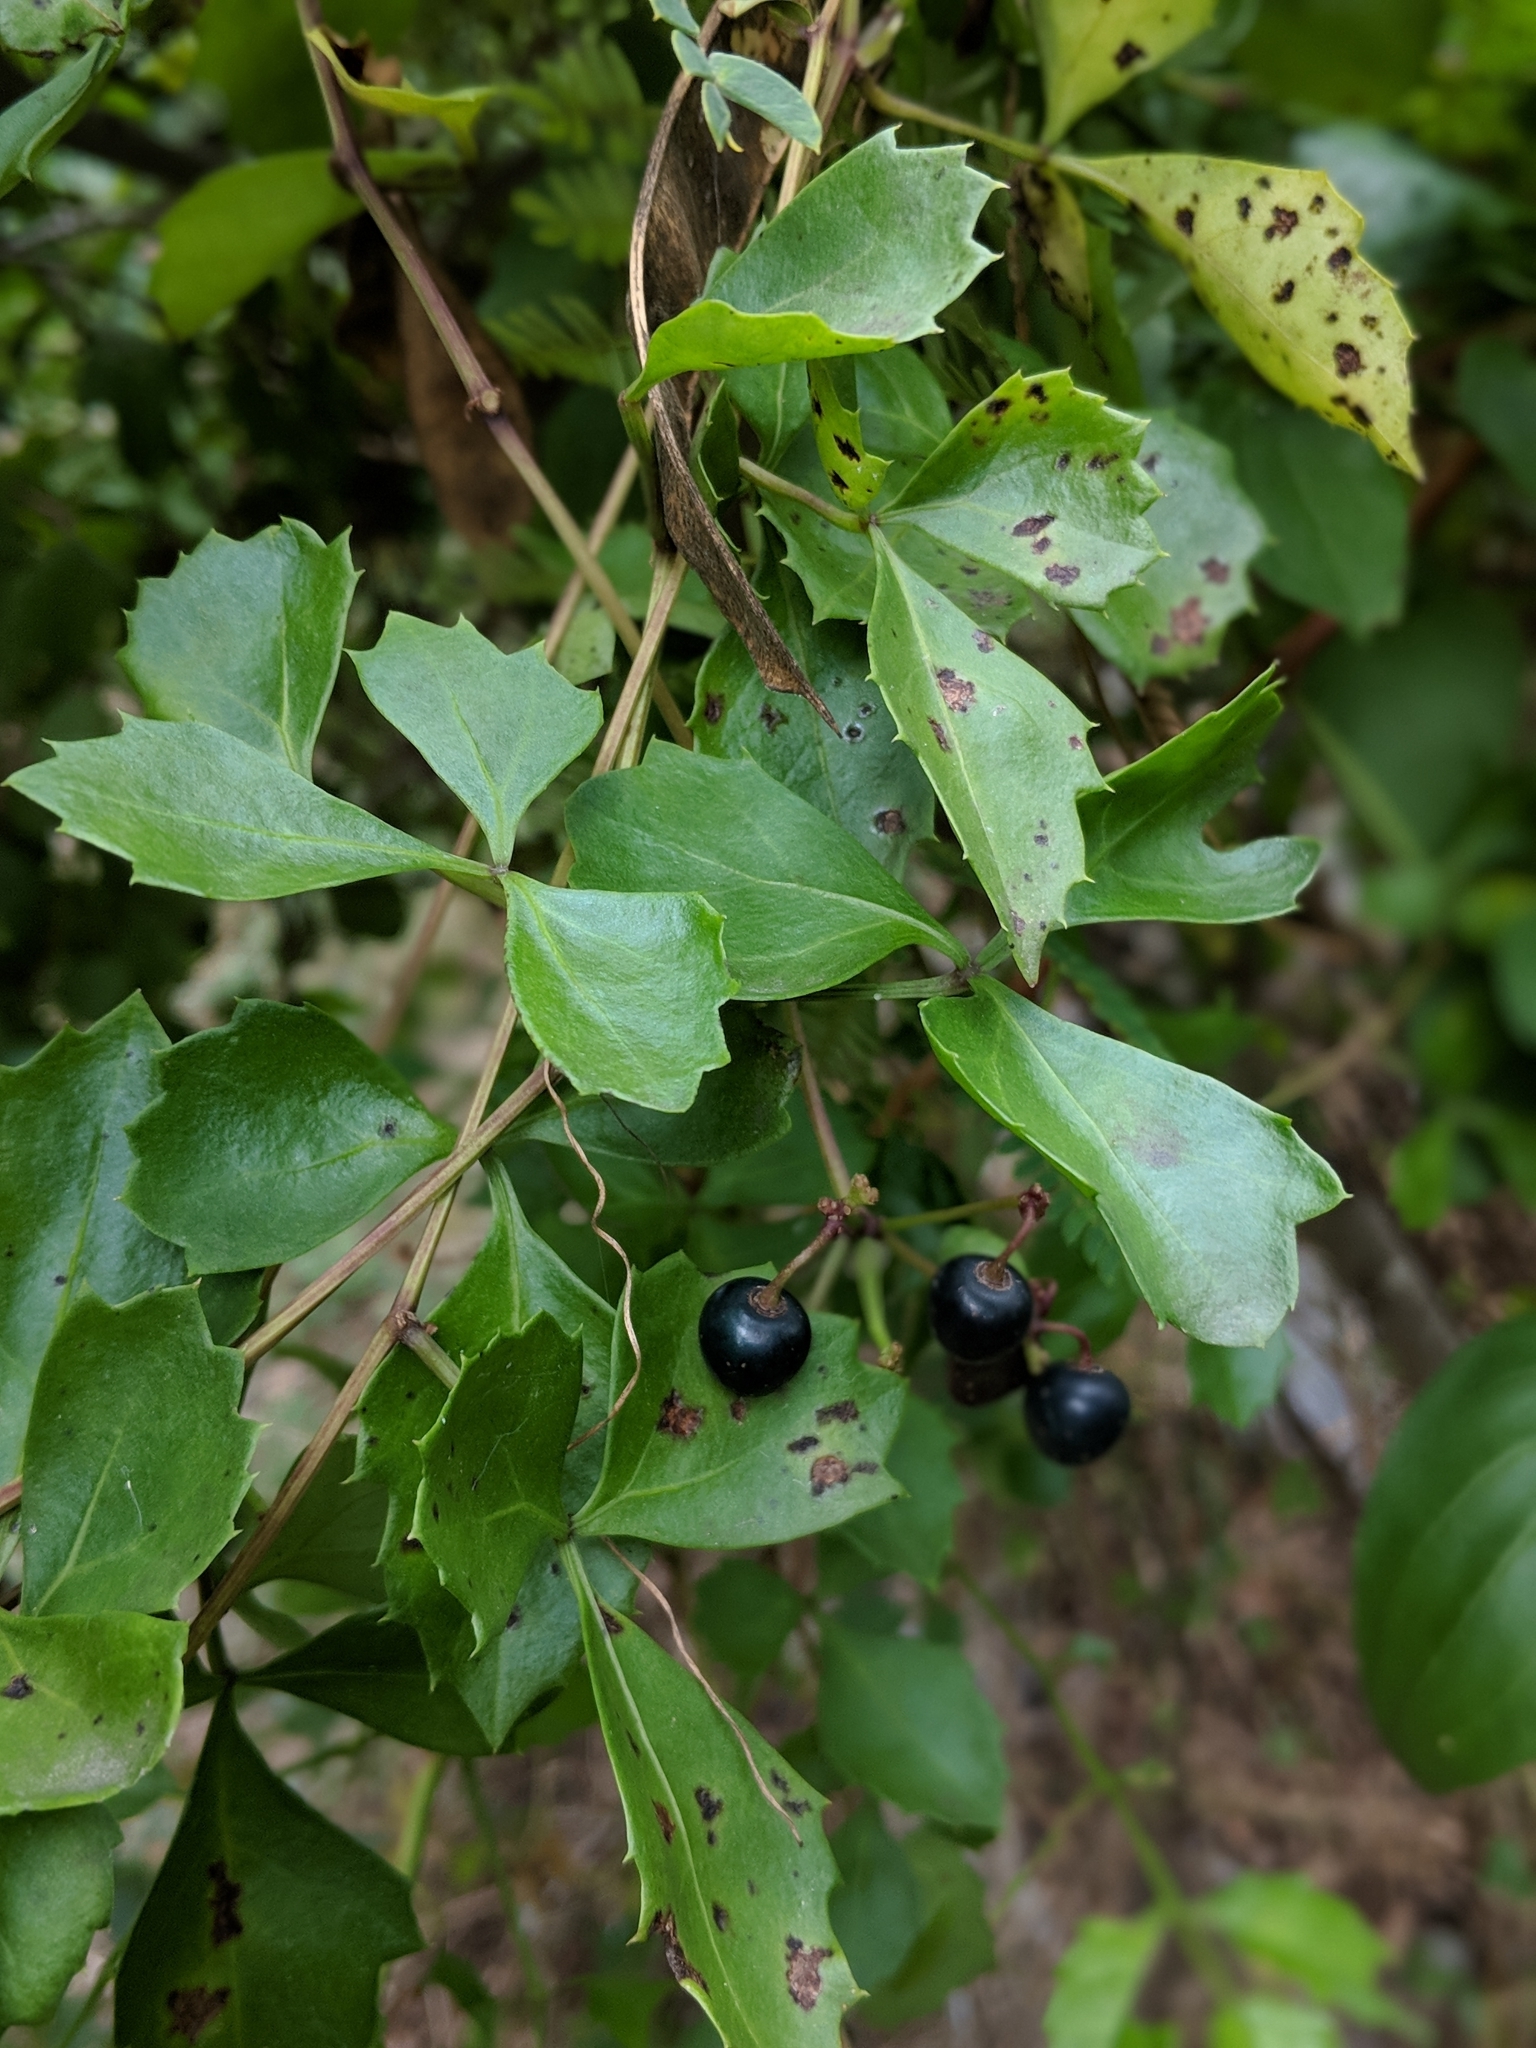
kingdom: Plantae
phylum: Tracheophyta
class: Magnoliopsida
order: Vitales
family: Vitaceae
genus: Cissus
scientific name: Cissus trifoliata
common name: Vine-sorrel
